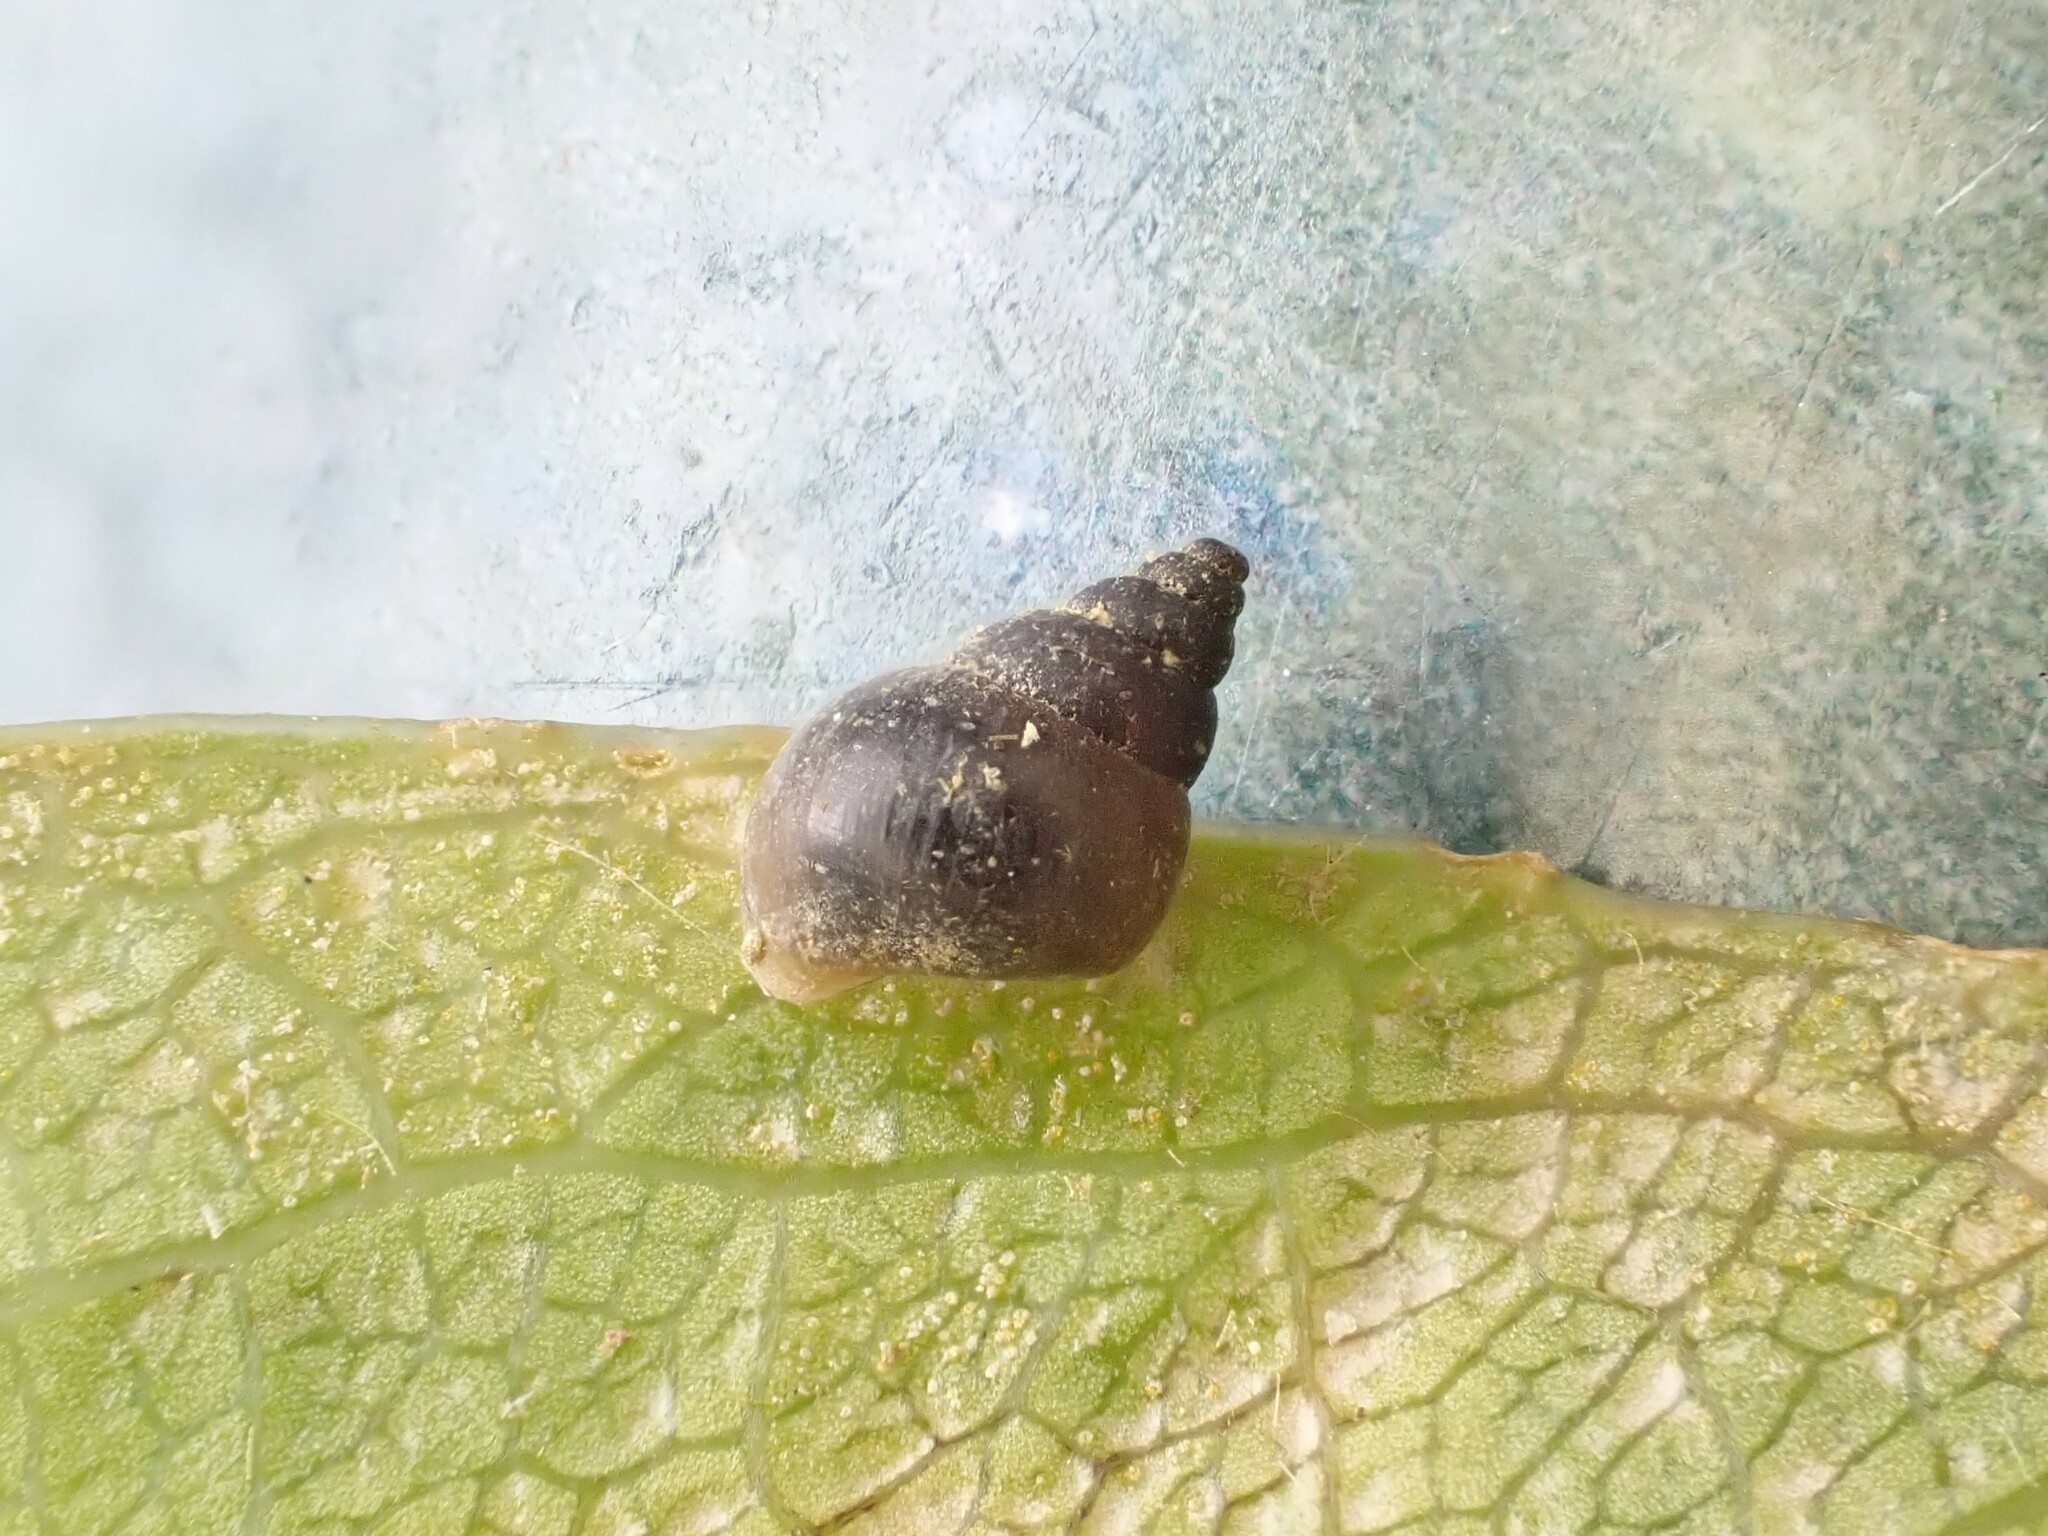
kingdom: Animalia
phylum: Mollusca
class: Gastropoda
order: Littorinimorpha
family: Tateidae
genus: Potamopyrgus
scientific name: Potamopyrgus antipodarum
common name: Jenkins' spire snail
